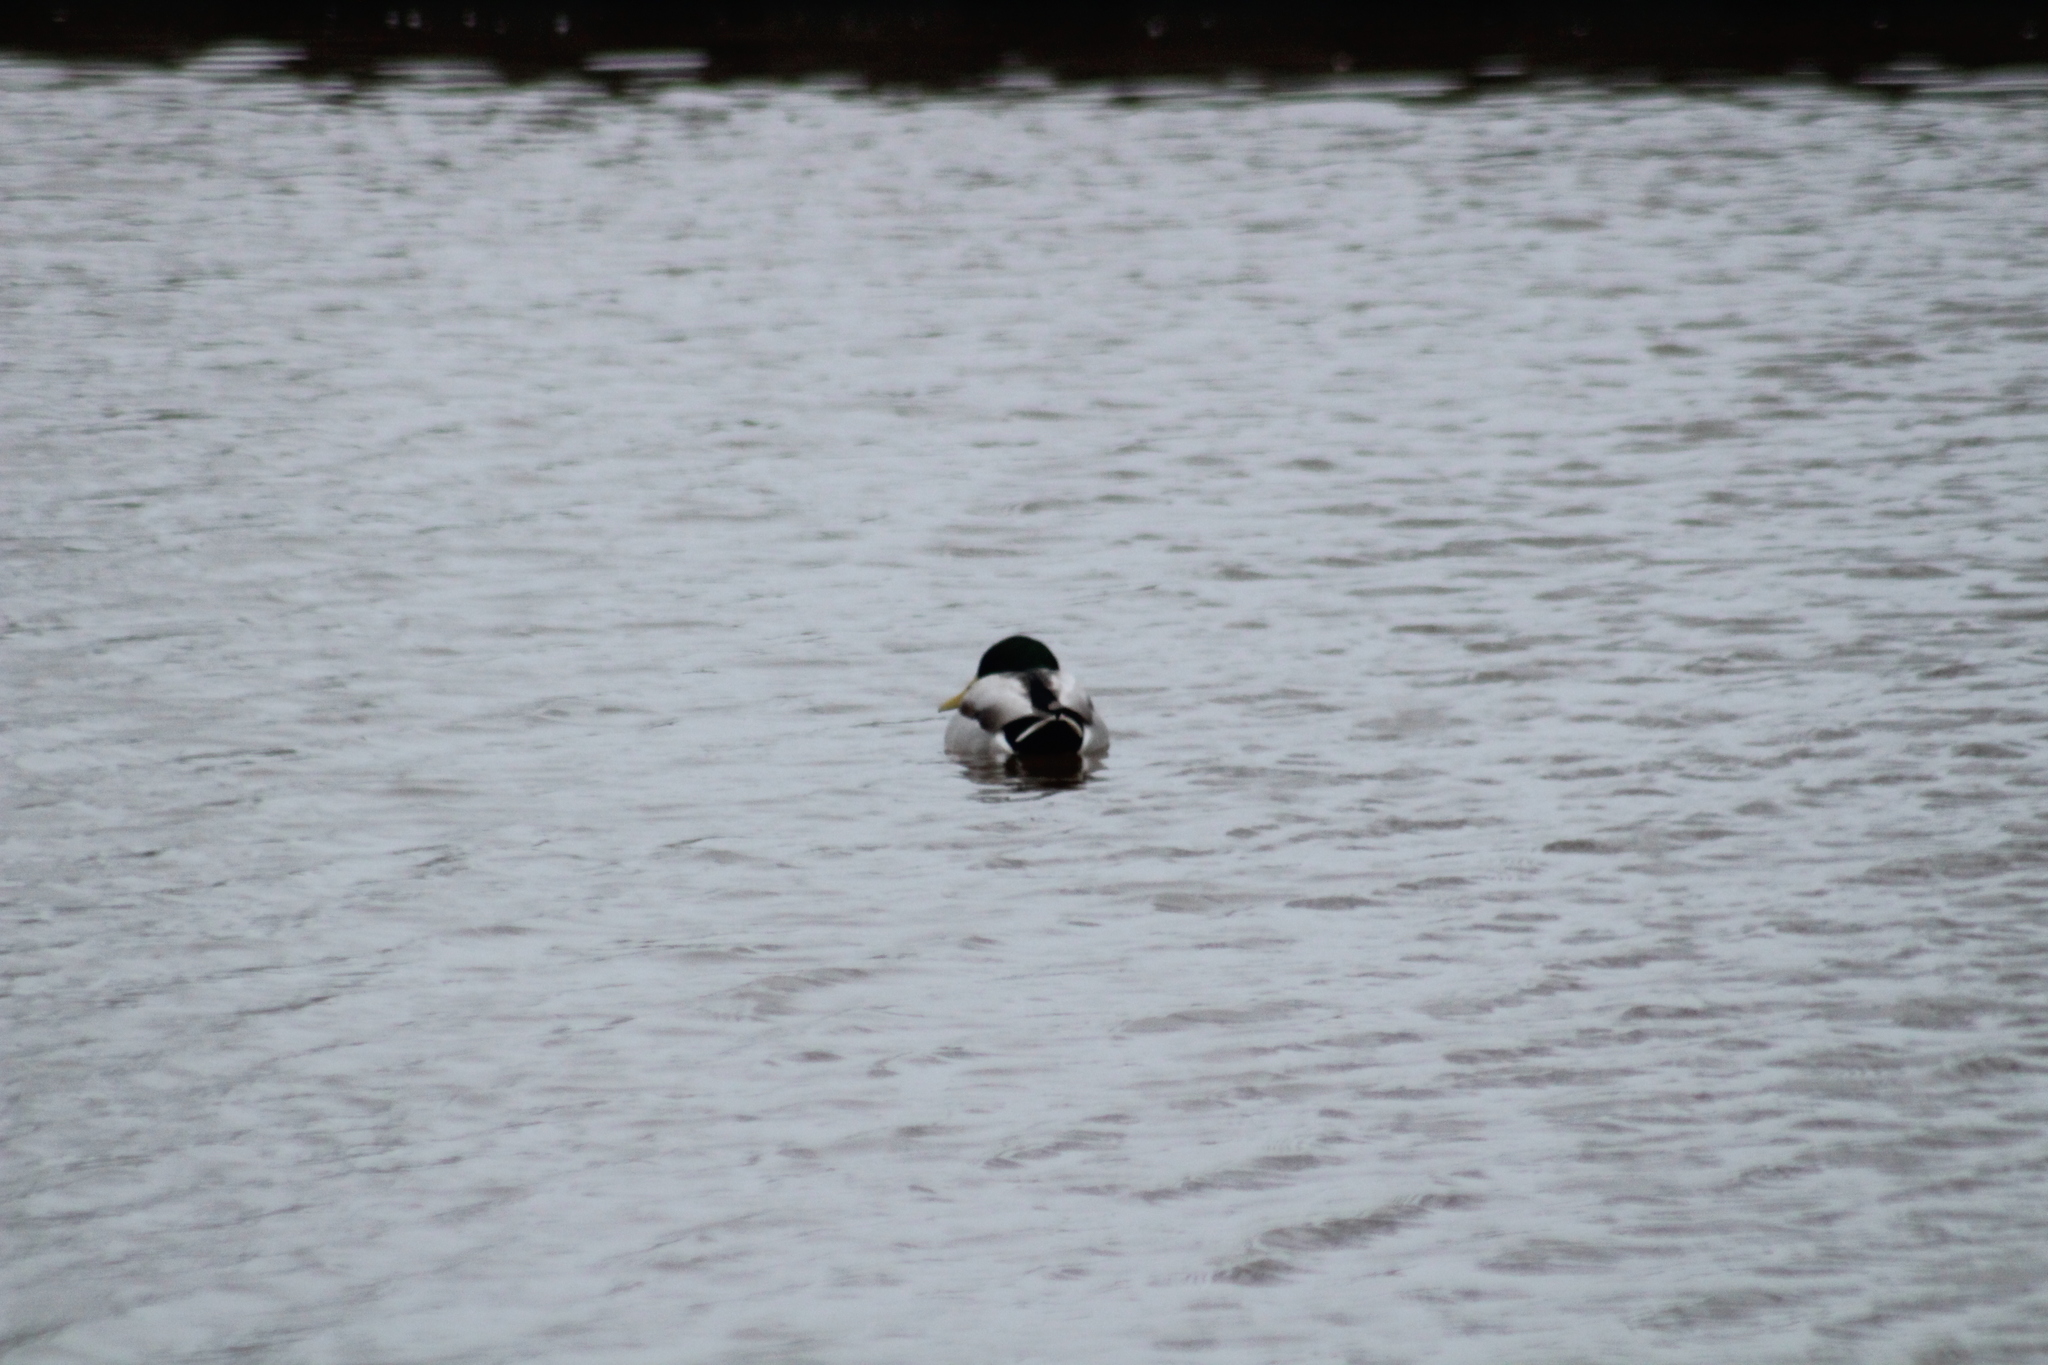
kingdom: Animalia
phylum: Chordata
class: Aves
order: Anseriformes
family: Anatidae
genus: Anas
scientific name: Anas platyrhynchos
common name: Mallard
